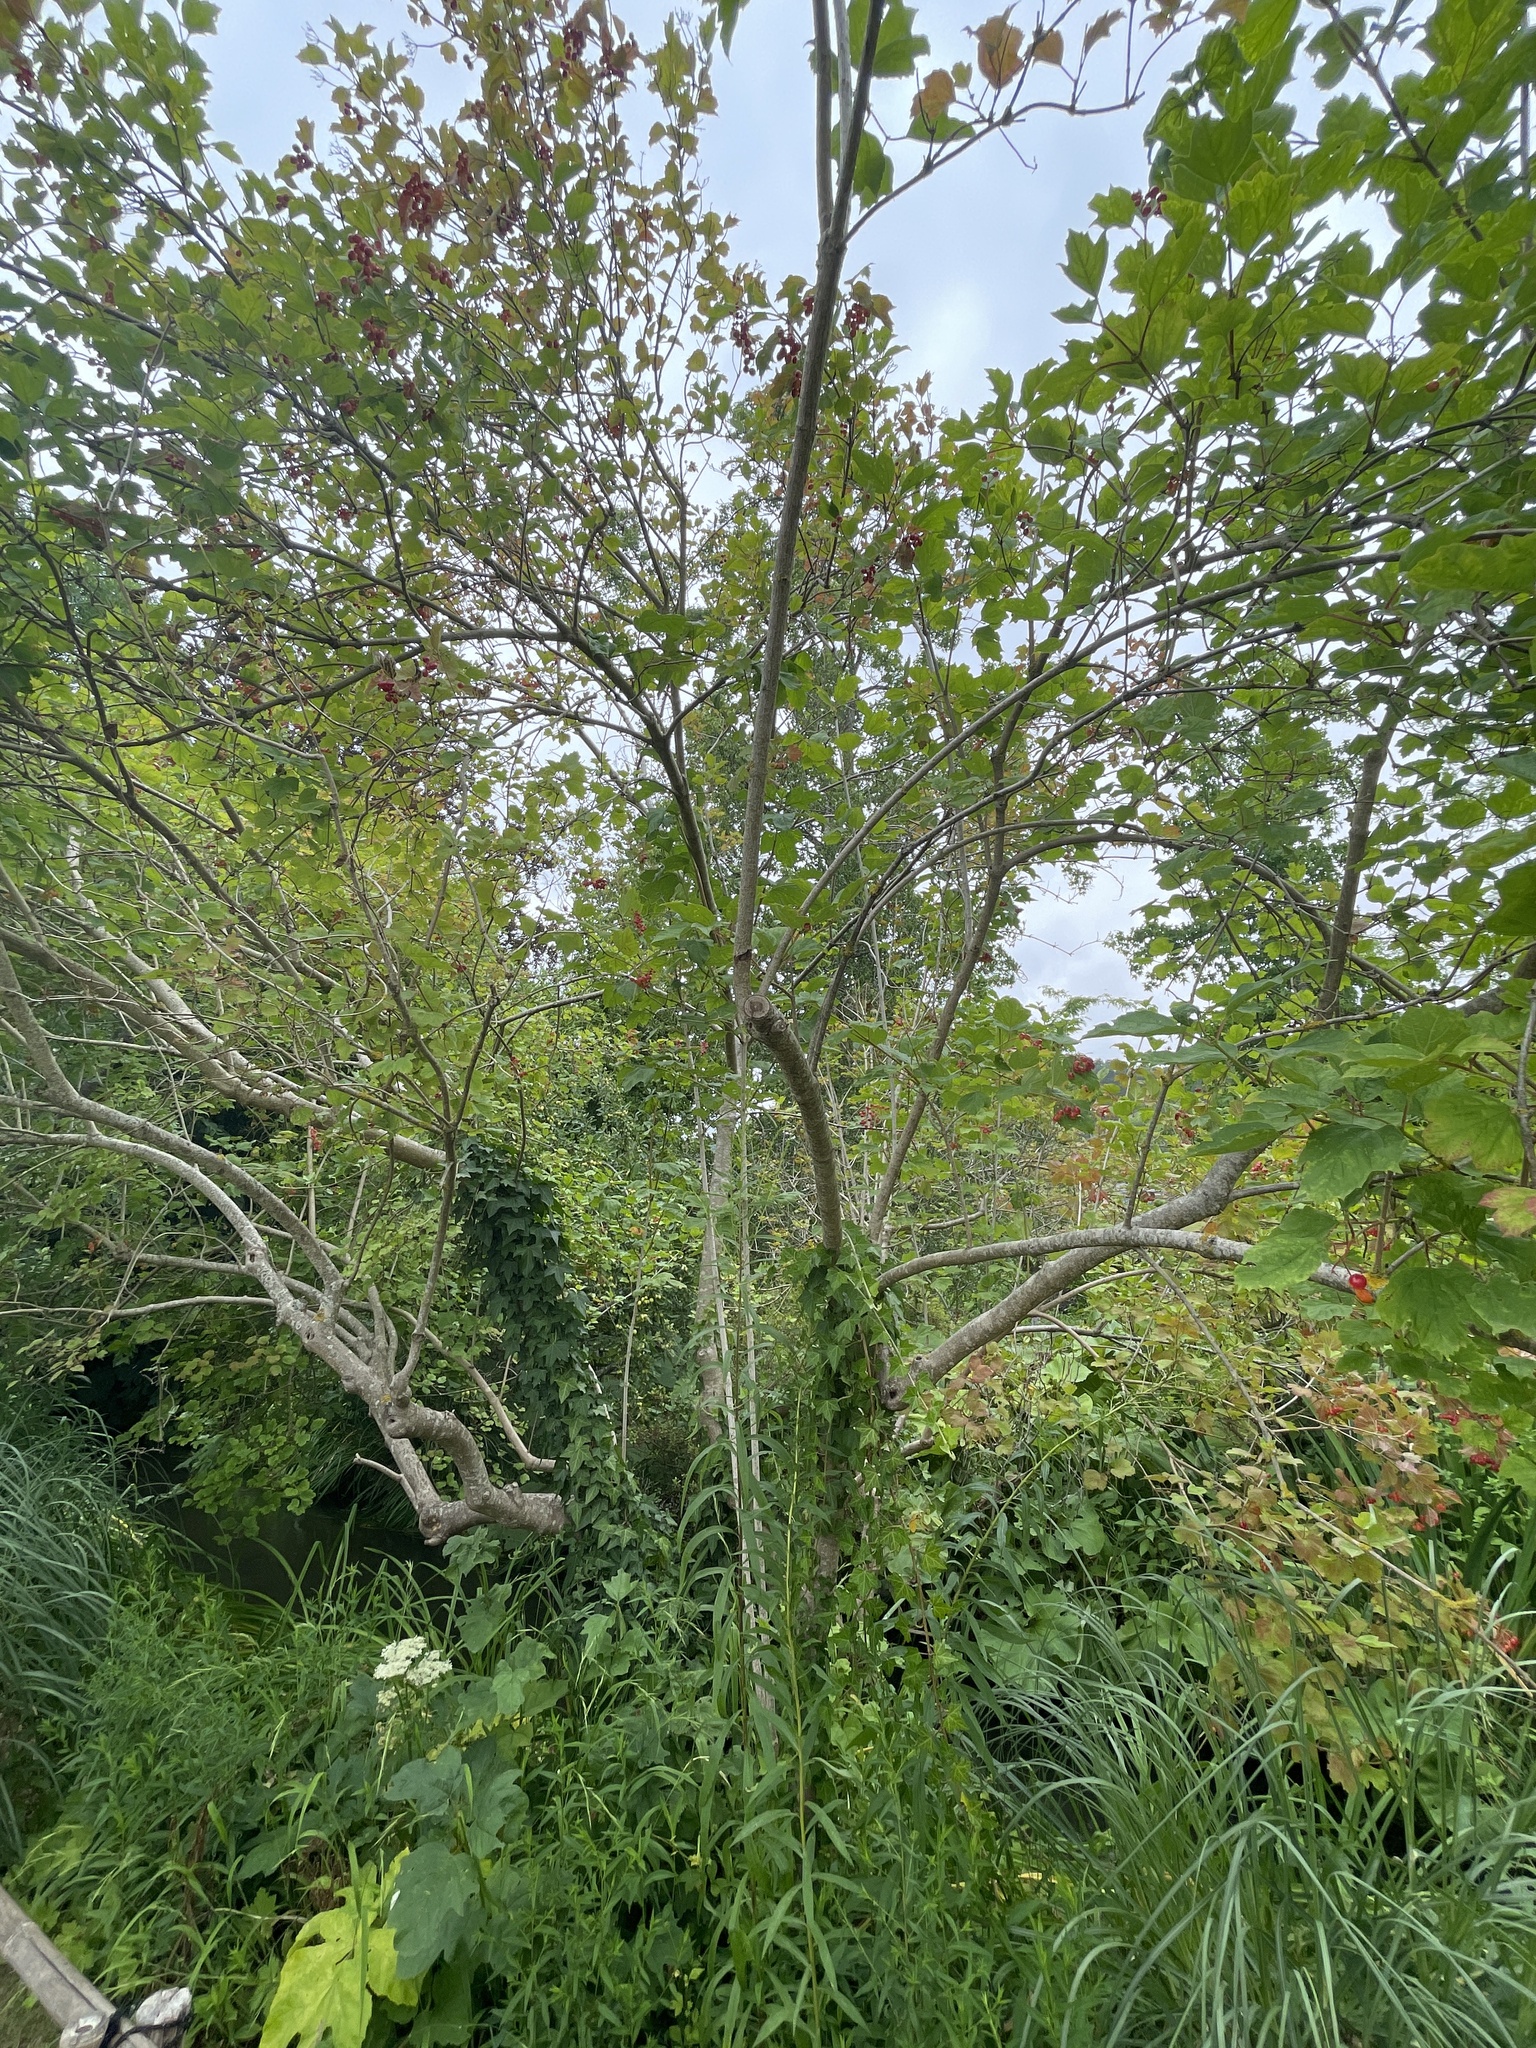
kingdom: Plantae
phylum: Tracheophyta
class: Magnoliopsida
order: Dipsacales
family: Viburnaceae
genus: Viburnum
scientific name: Viburnum opulus
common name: Guelder-rose
